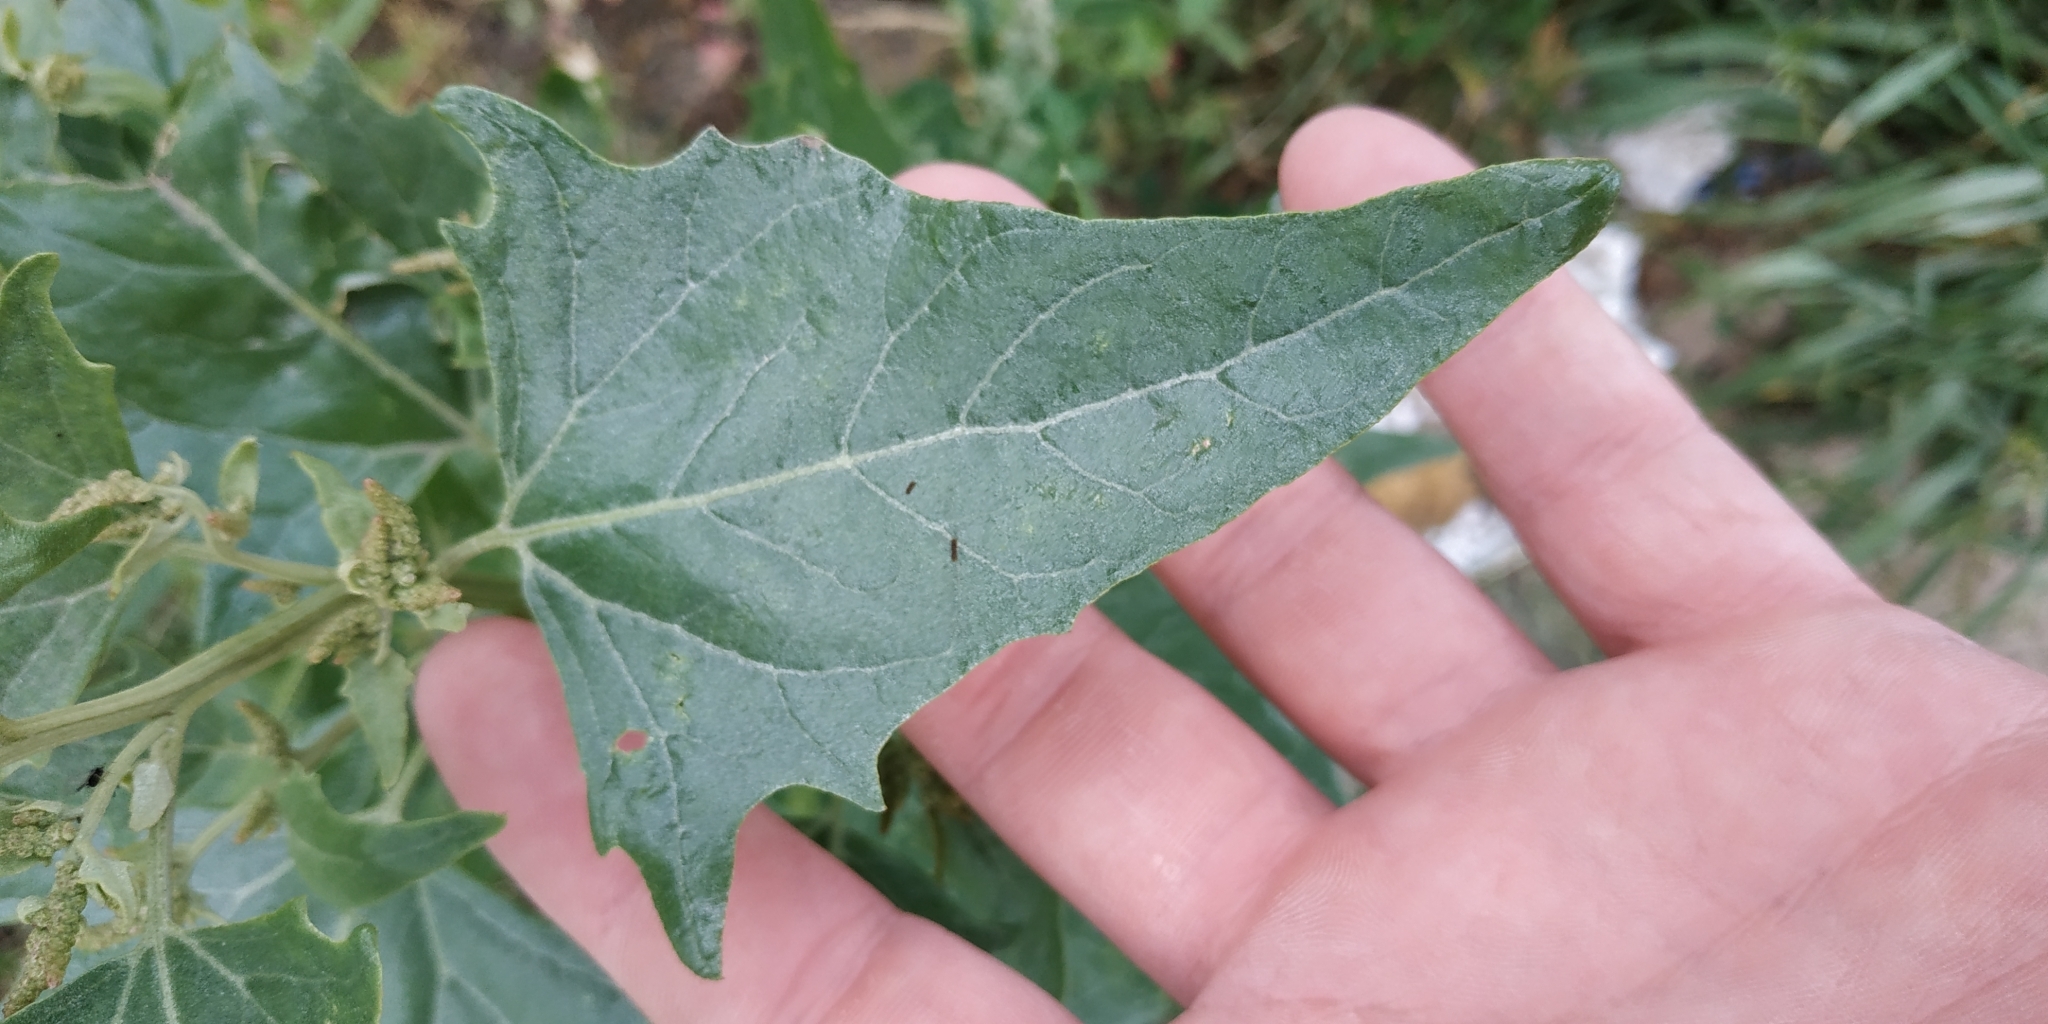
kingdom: Plantae
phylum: Tracheophyta
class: Magnoliopsida
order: Caryophyllales
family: Amaranthaceae
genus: Atriplex
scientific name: Atriplex sagittata
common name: Purple orache
